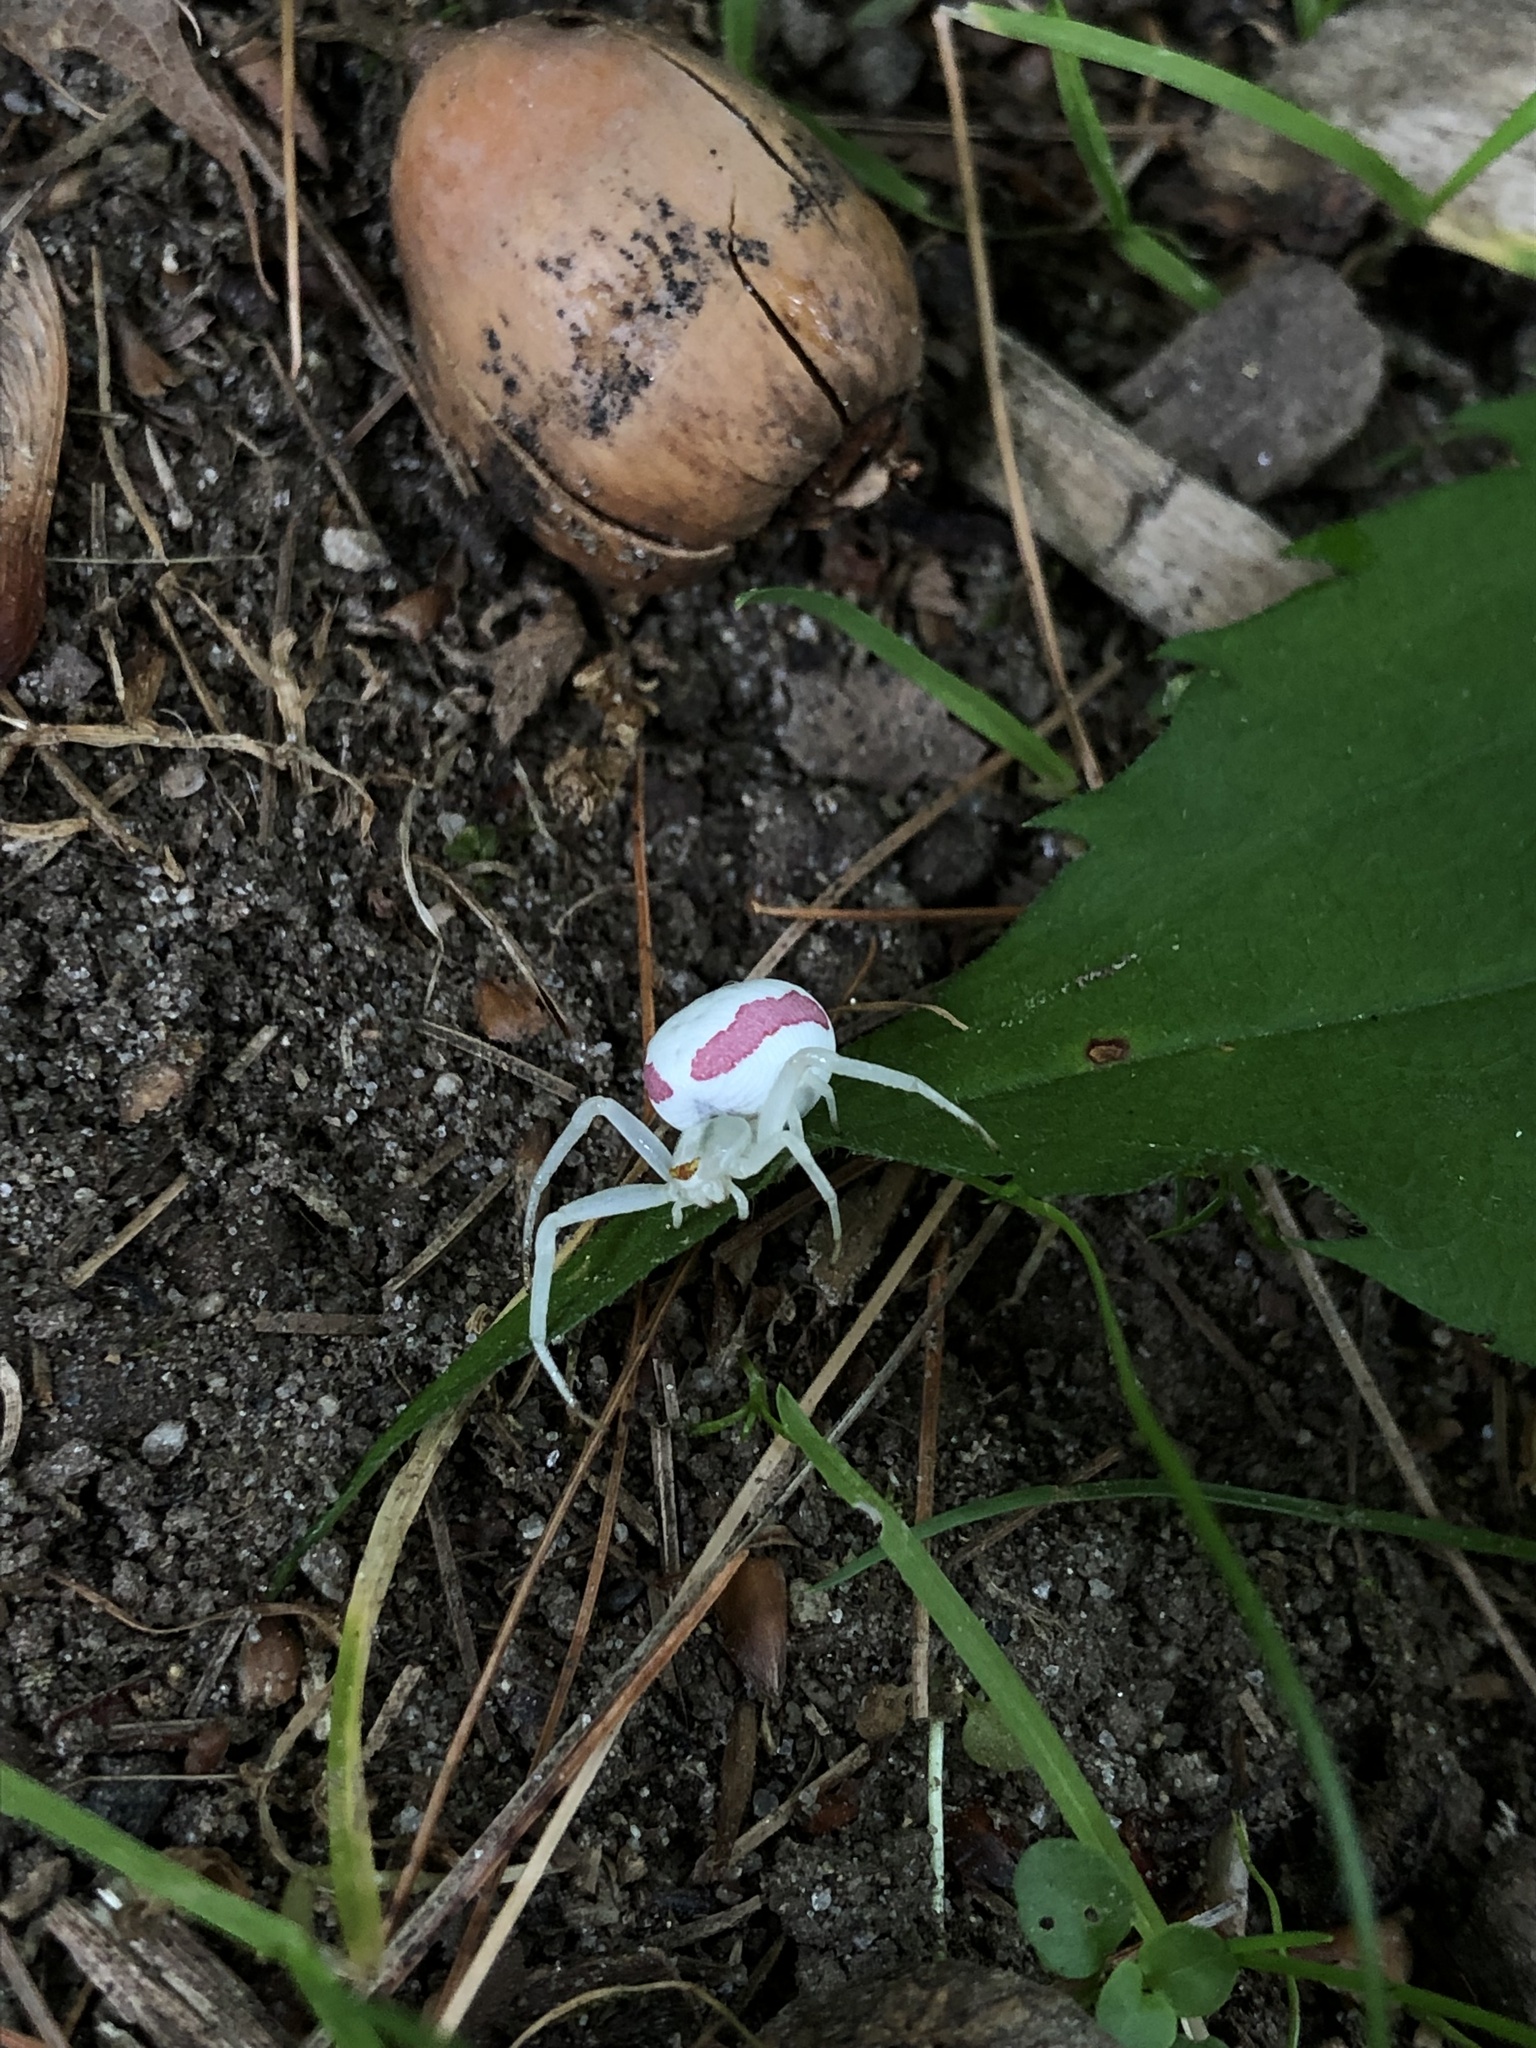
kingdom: Animalia
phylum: Arthropoda
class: Arachnida
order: Araneae
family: Thomisidae
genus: Misumena
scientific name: Misumena vatia
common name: Goldenrod crab spider
